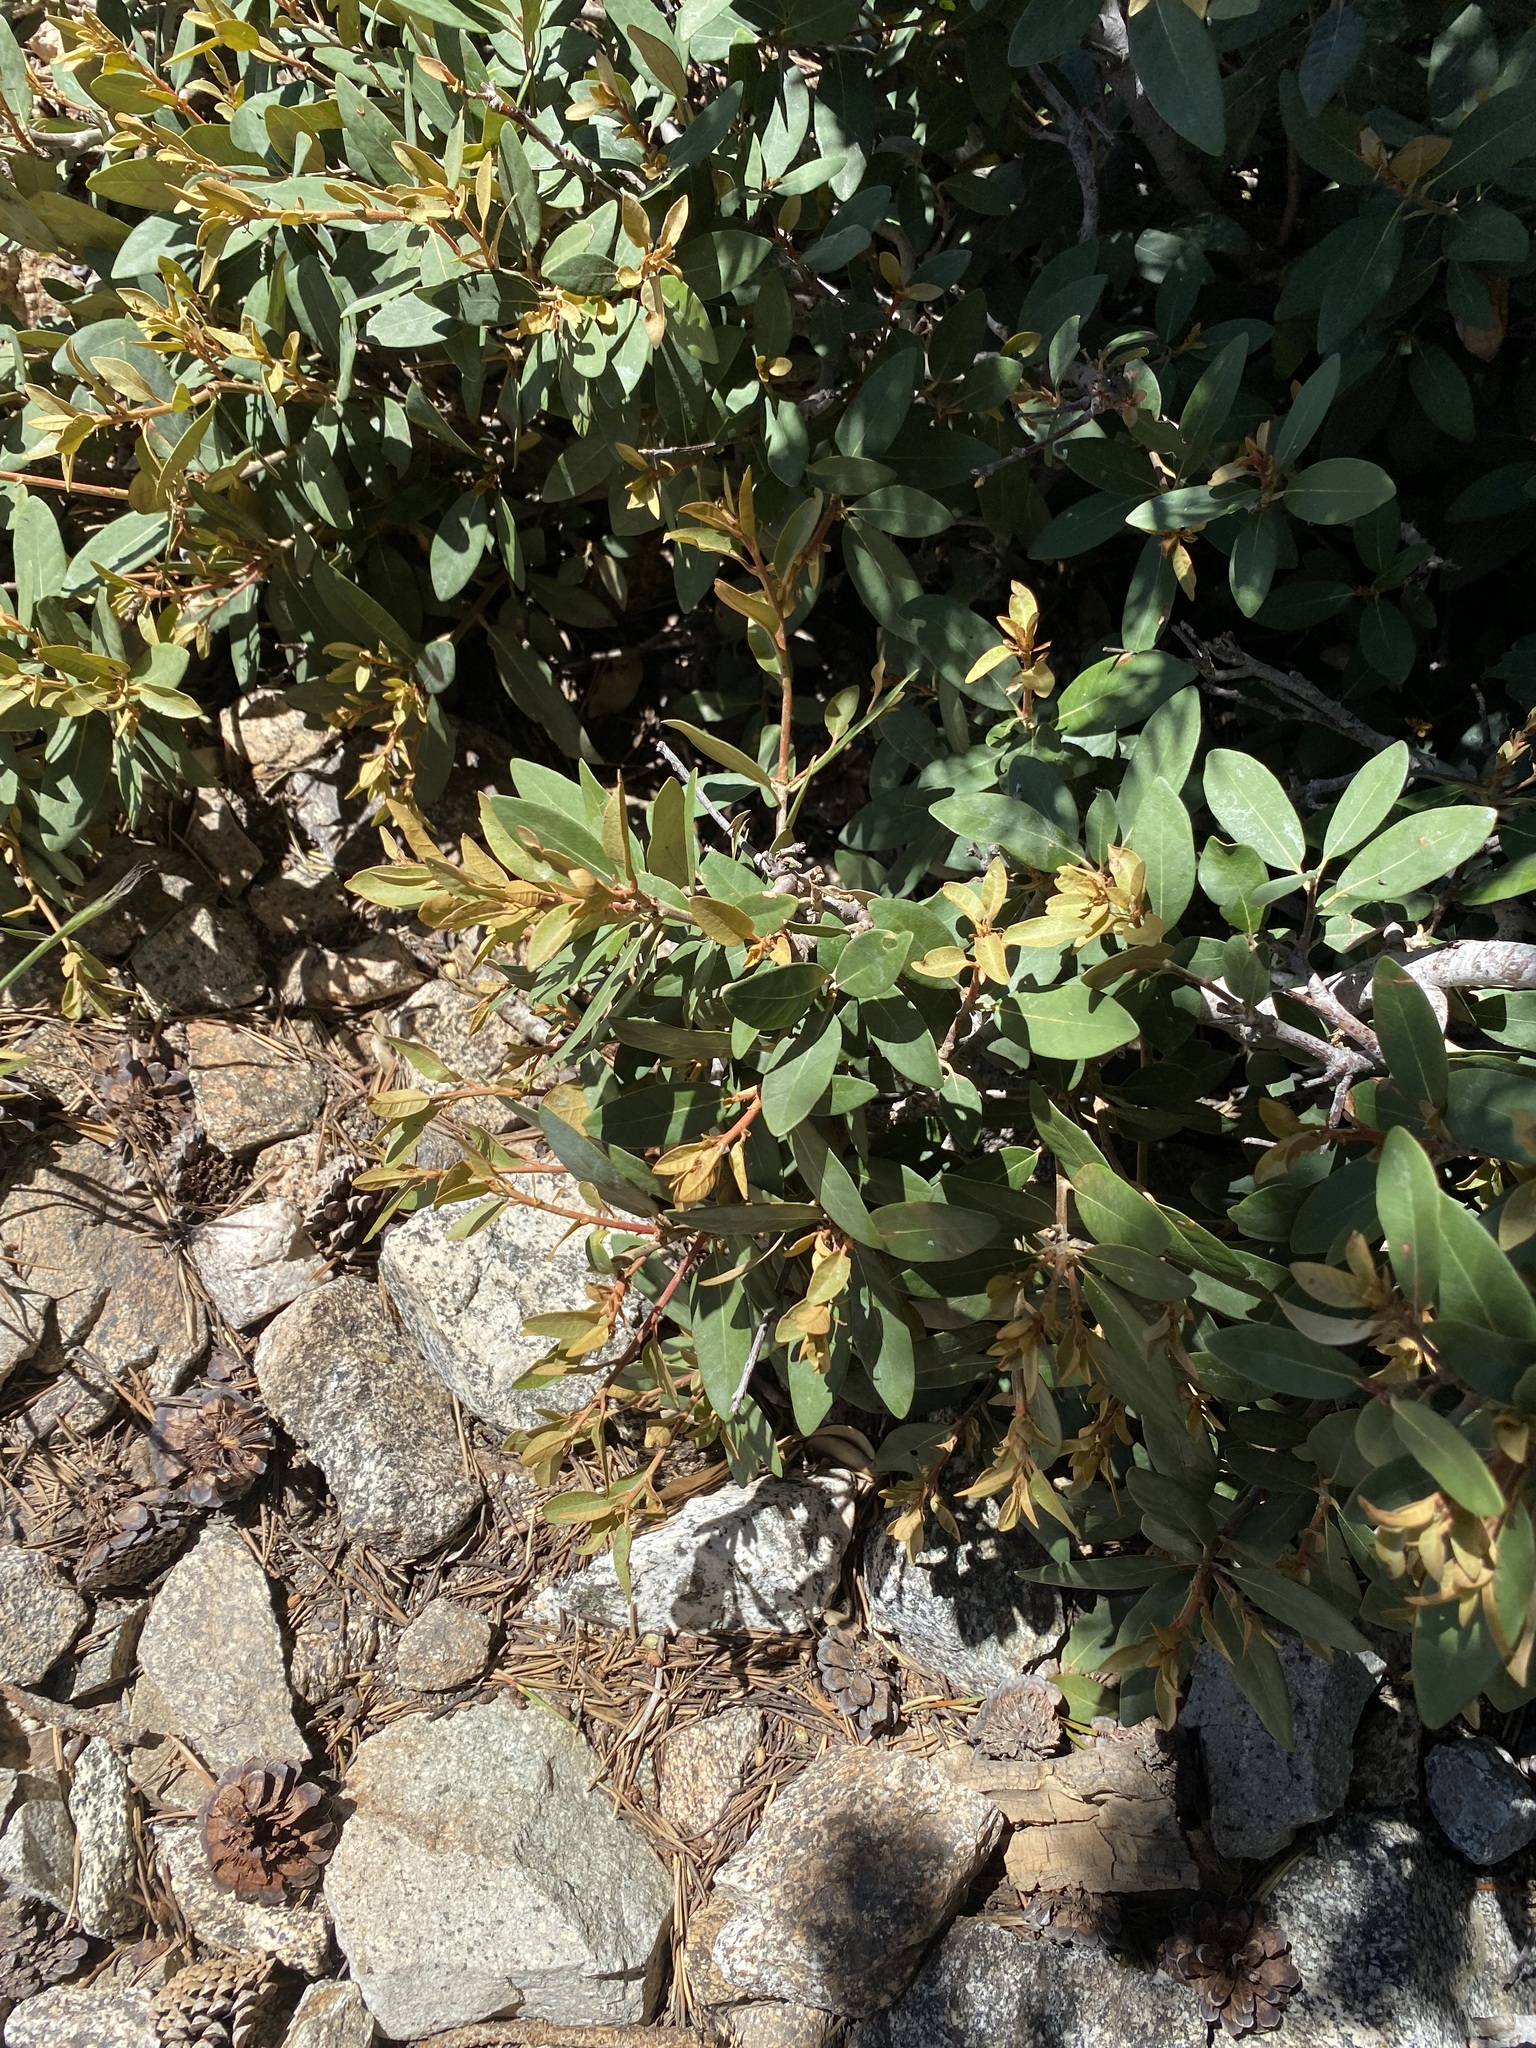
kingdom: Plantae
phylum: Tracheophyta
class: Magnoliopsida
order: Fagales
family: Fagaceae
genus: Chrysolepis
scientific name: Chrysolepis sempervirens
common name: Bush chinquapin
